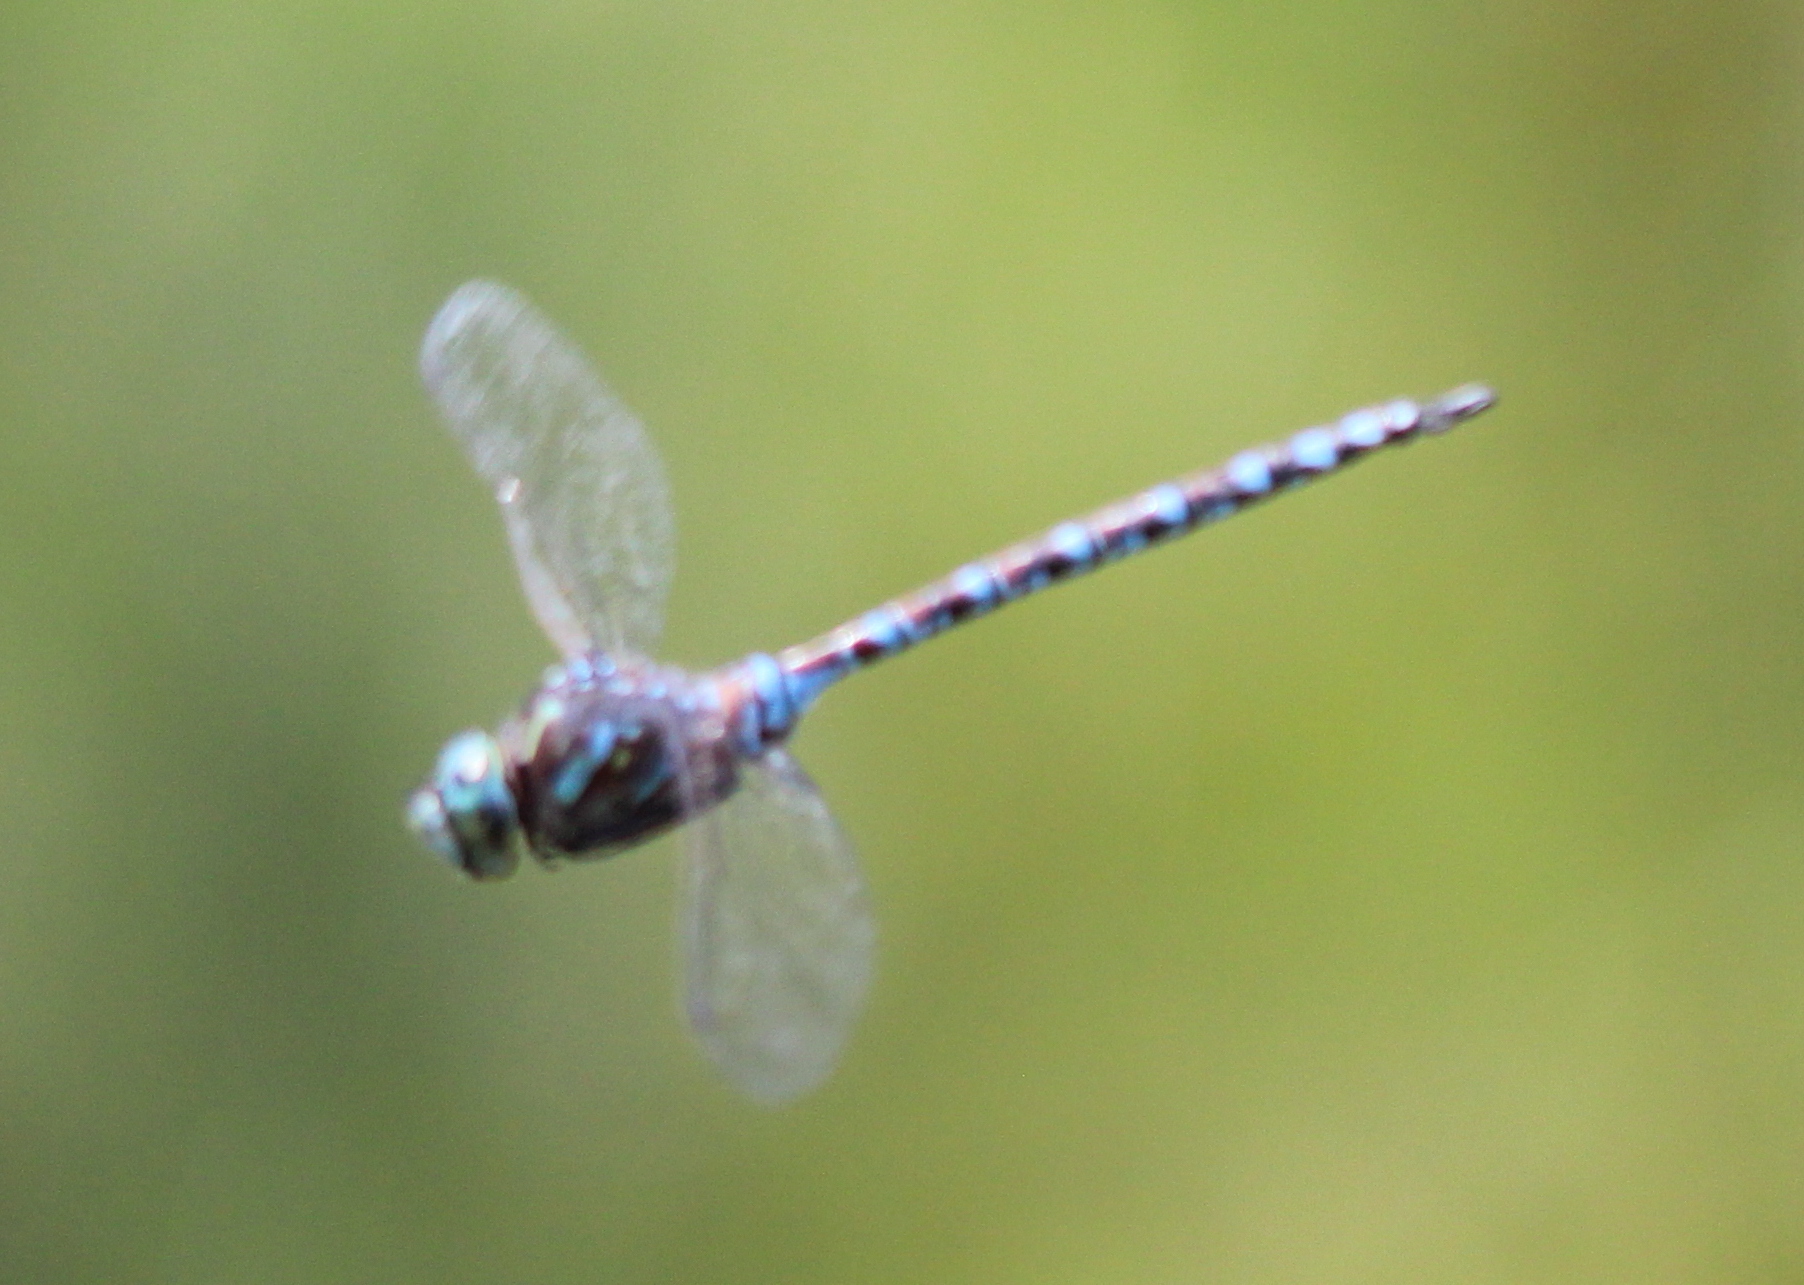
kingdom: Animalia
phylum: Arthropoda
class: Insecta
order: Odonata
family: Aeshnidae
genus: Aeshna
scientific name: Aeshna canadensis
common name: Canada darner
